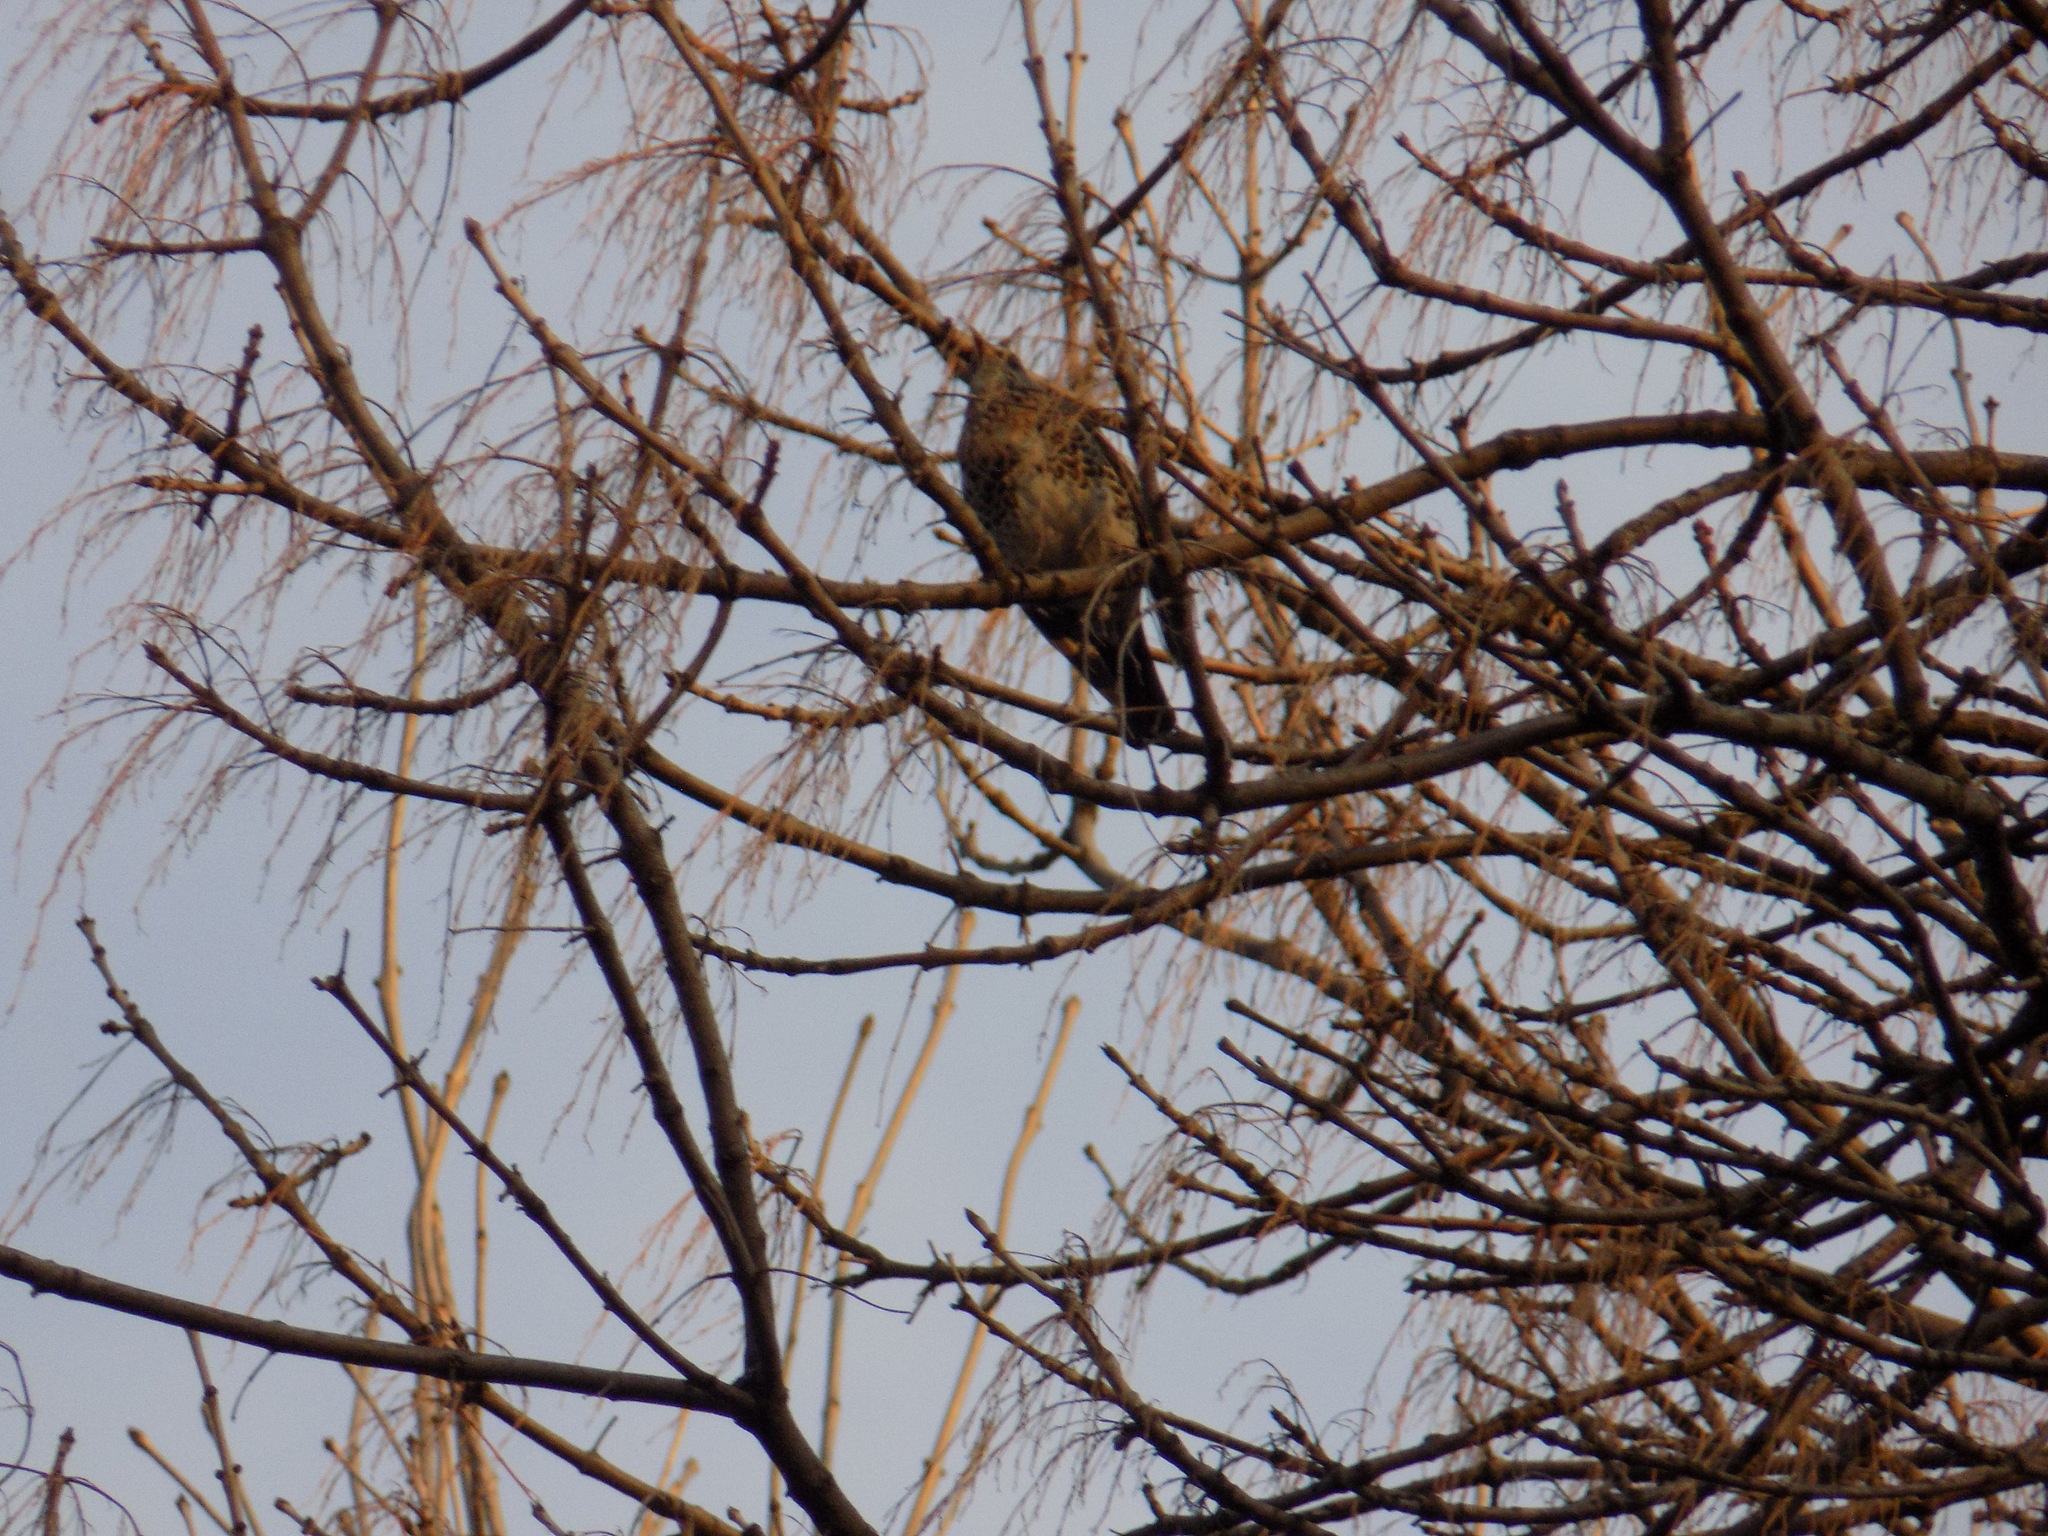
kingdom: Animalia
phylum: Chordata
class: Aves
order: Passeriformes
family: Turdidae
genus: Turdus
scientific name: Turdus pilaris
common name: Fieldfare
